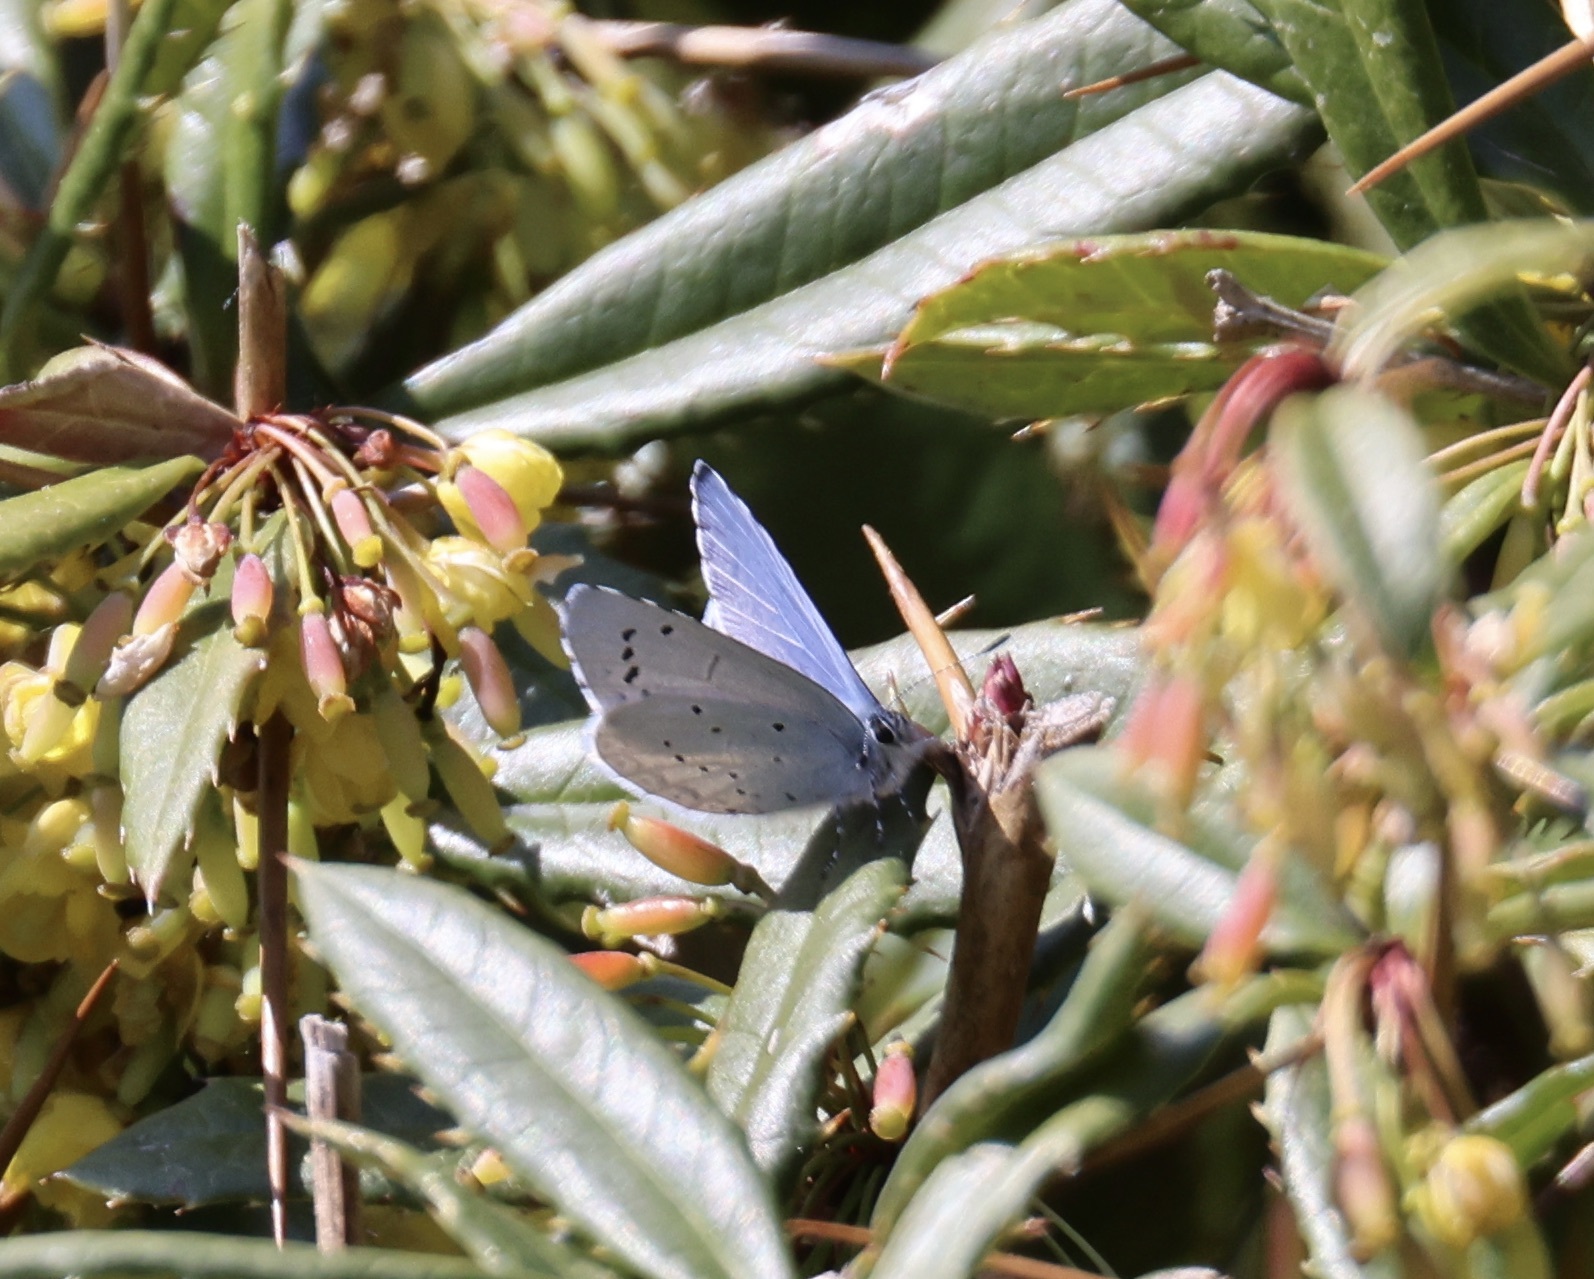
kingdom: Animalia
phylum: Arthropoda
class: Insecta
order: Lepidoptera
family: Lycaenidae
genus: Celastrina
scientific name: Celastrina argiolus
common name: Holly blue
